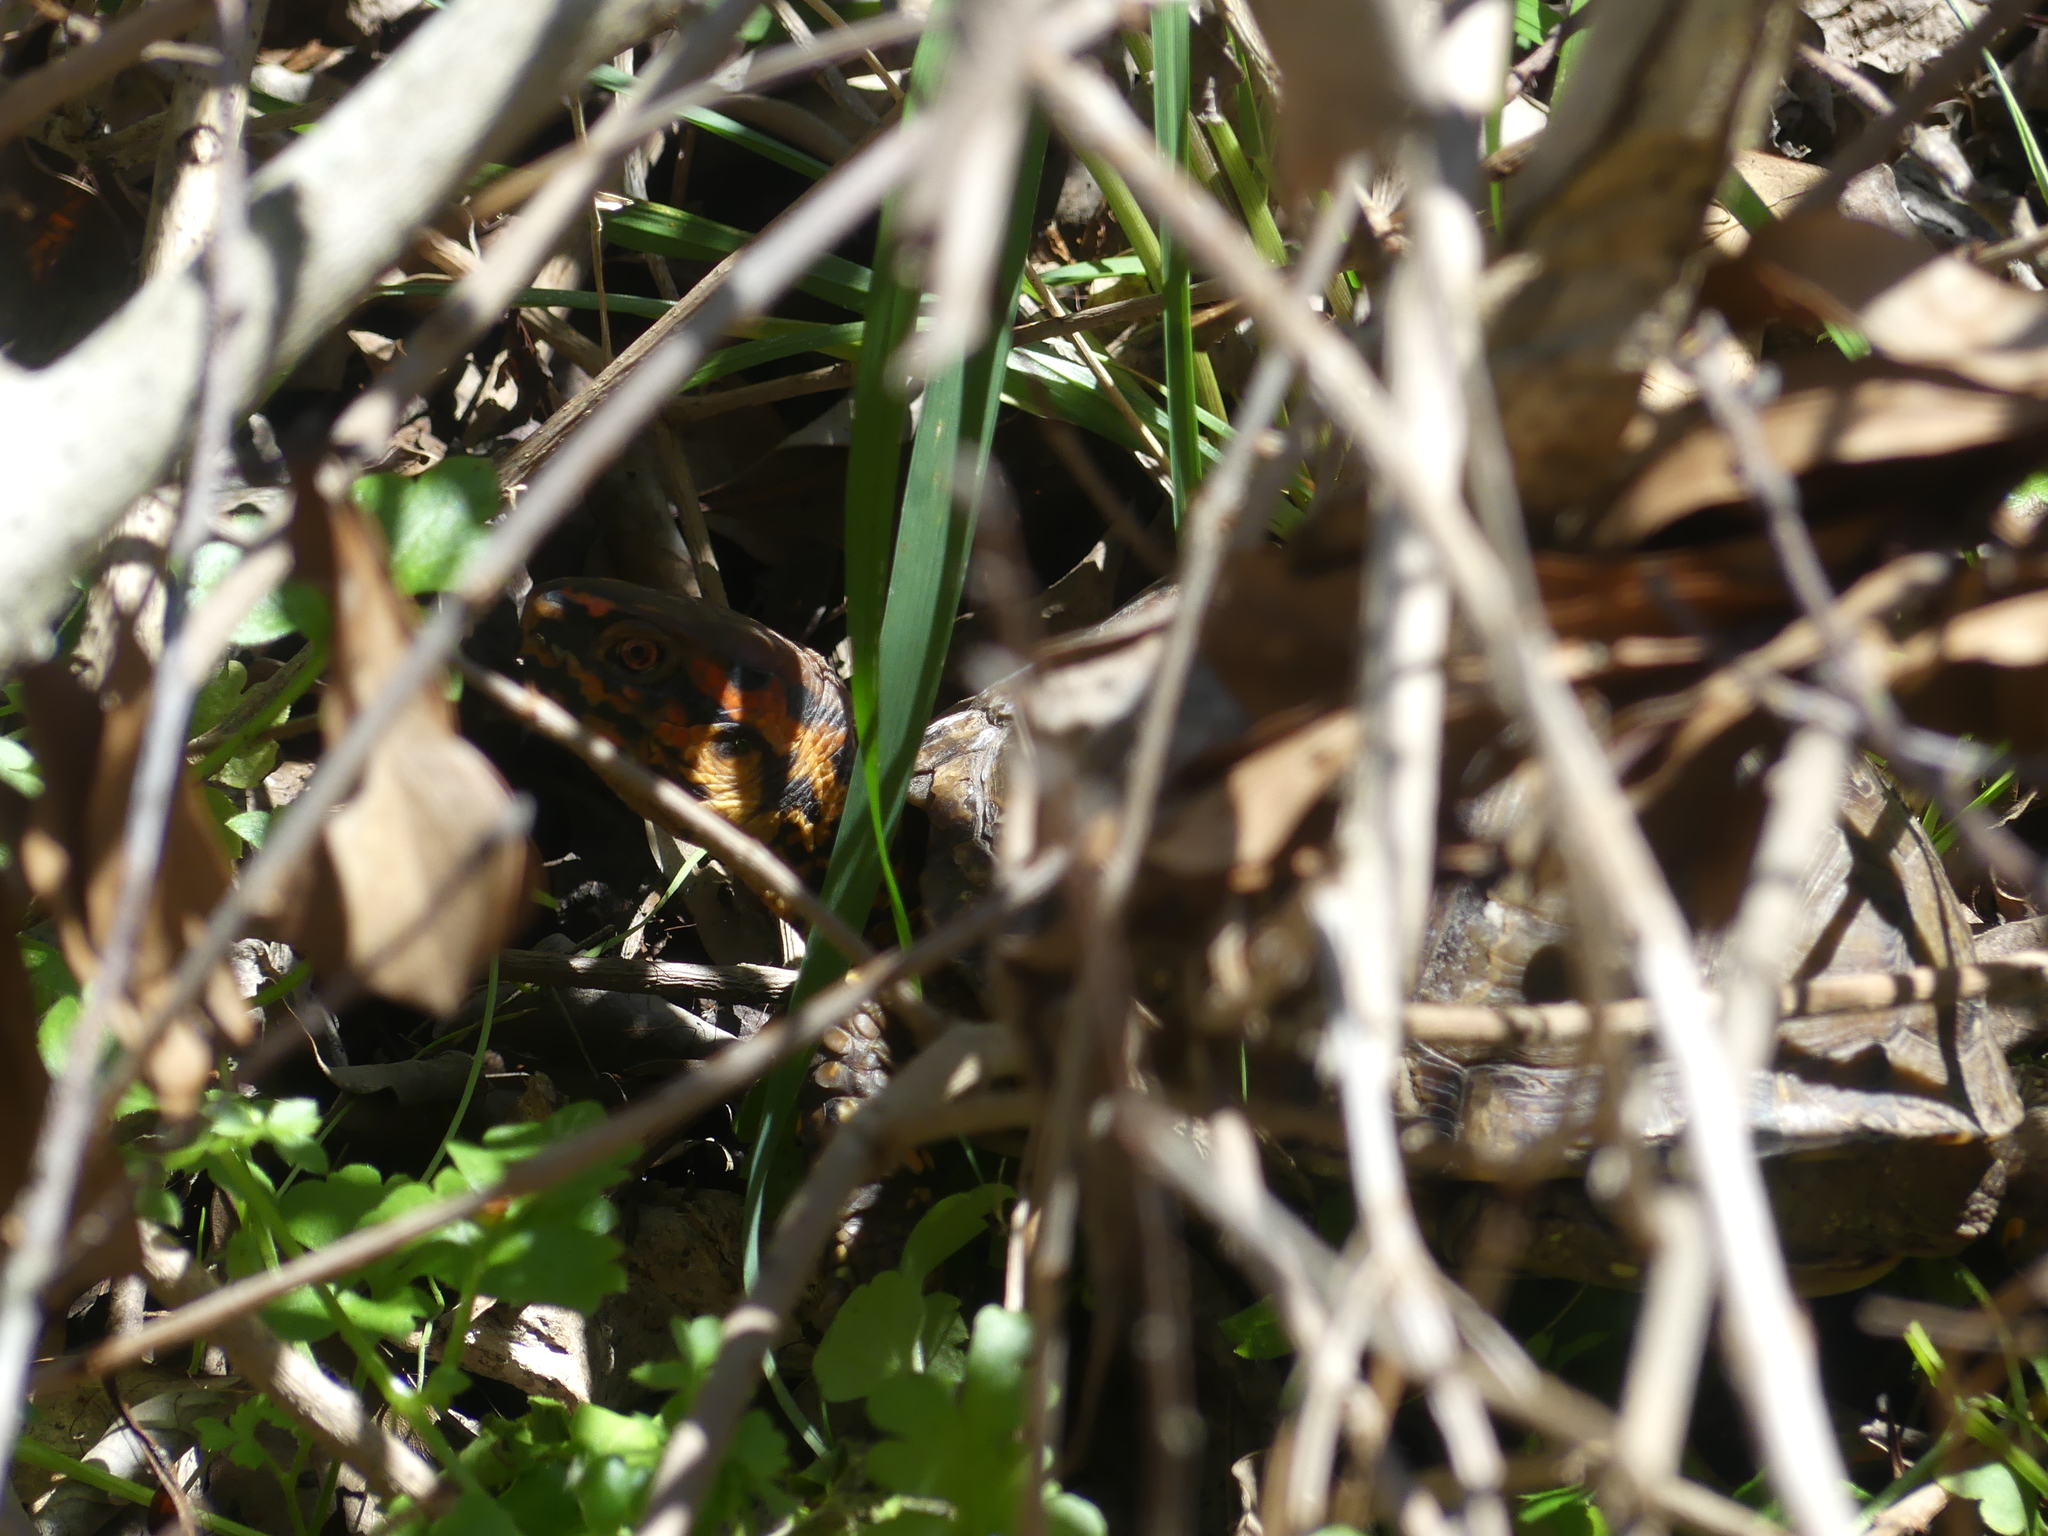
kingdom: Animalia
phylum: Chordata
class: Testudines
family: Emydidae
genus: Terrapene
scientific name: Terrapene carolina
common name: Common box turtle
